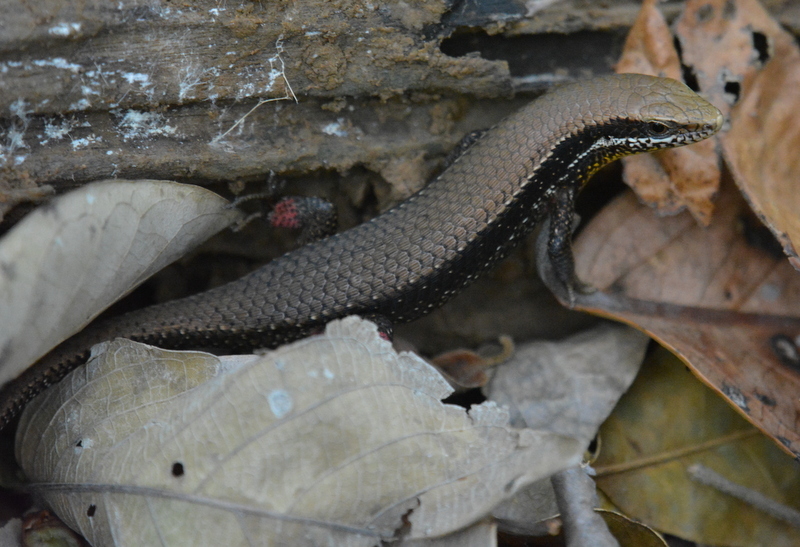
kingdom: Animalia
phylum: Chordata
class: Squamata
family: Scincidae
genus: Eutropis
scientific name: Eutropis macularia
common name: Bronze mabuya
